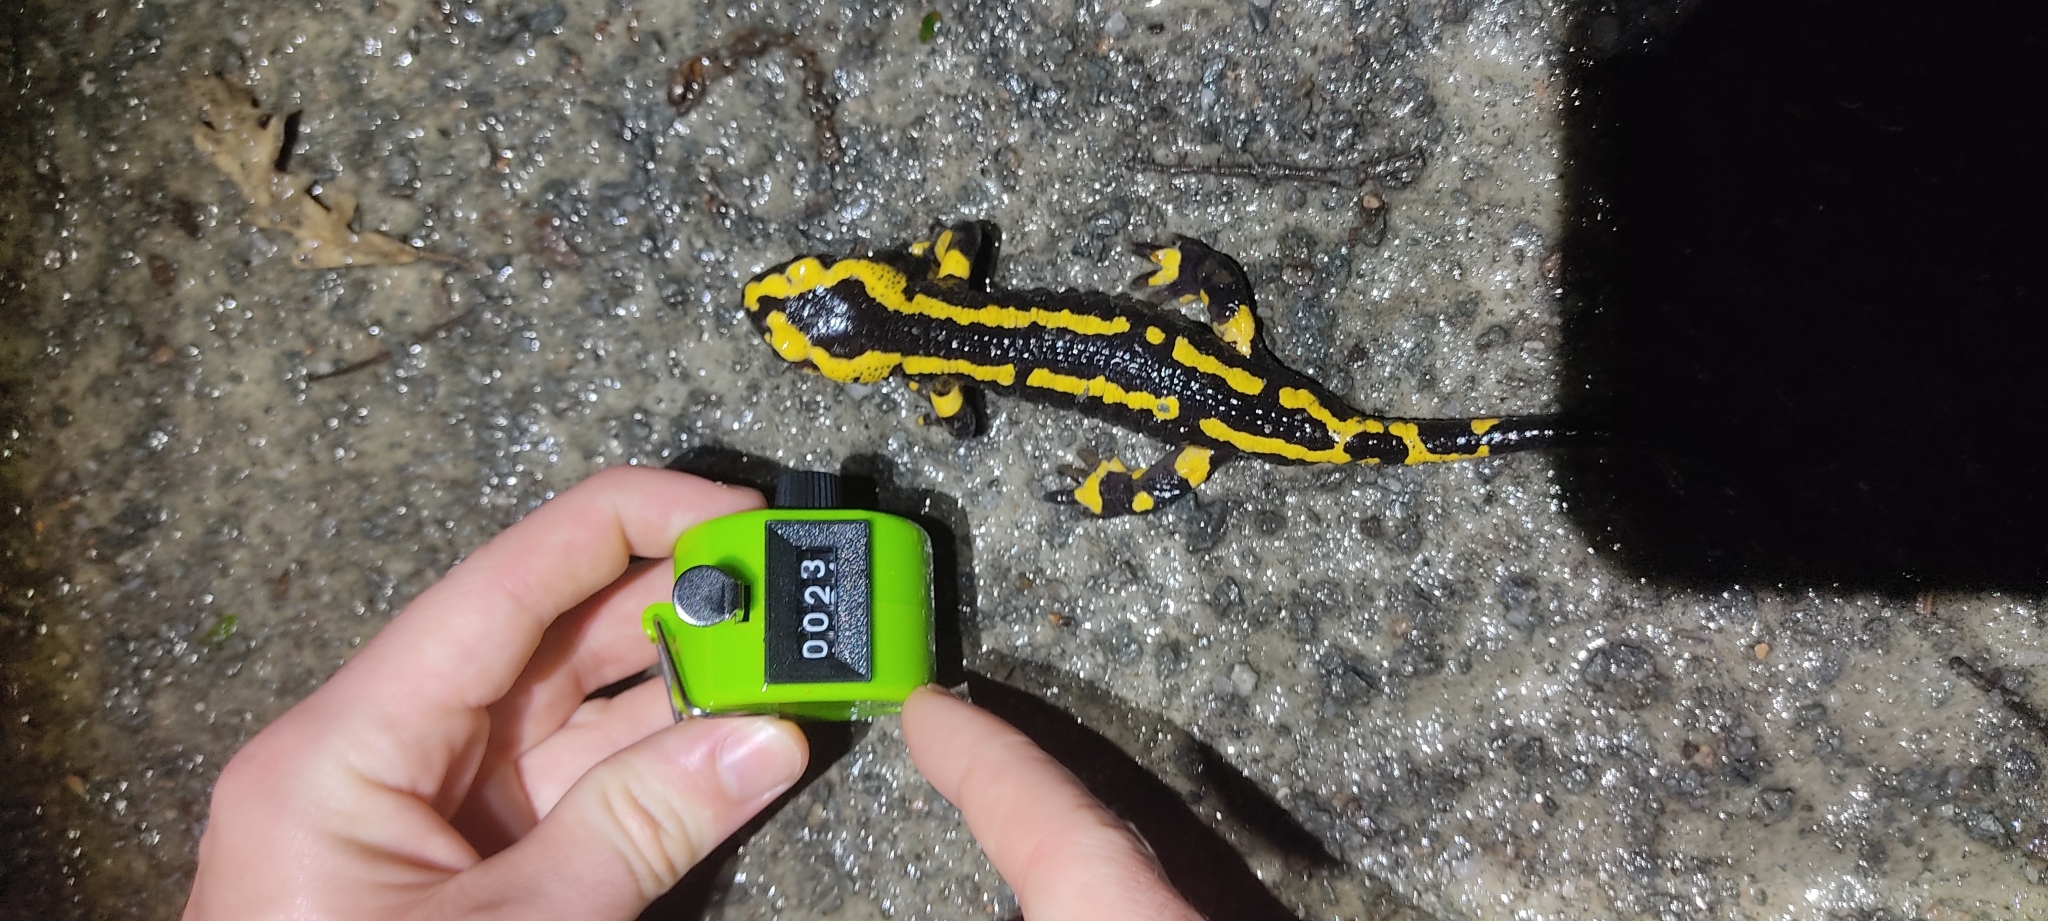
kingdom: Animalia
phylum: Chordata
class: Amphibia
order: Caudata
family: Salamandridae
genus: Salamandra
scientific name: Salamandra salamandra
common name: Fire salamander
